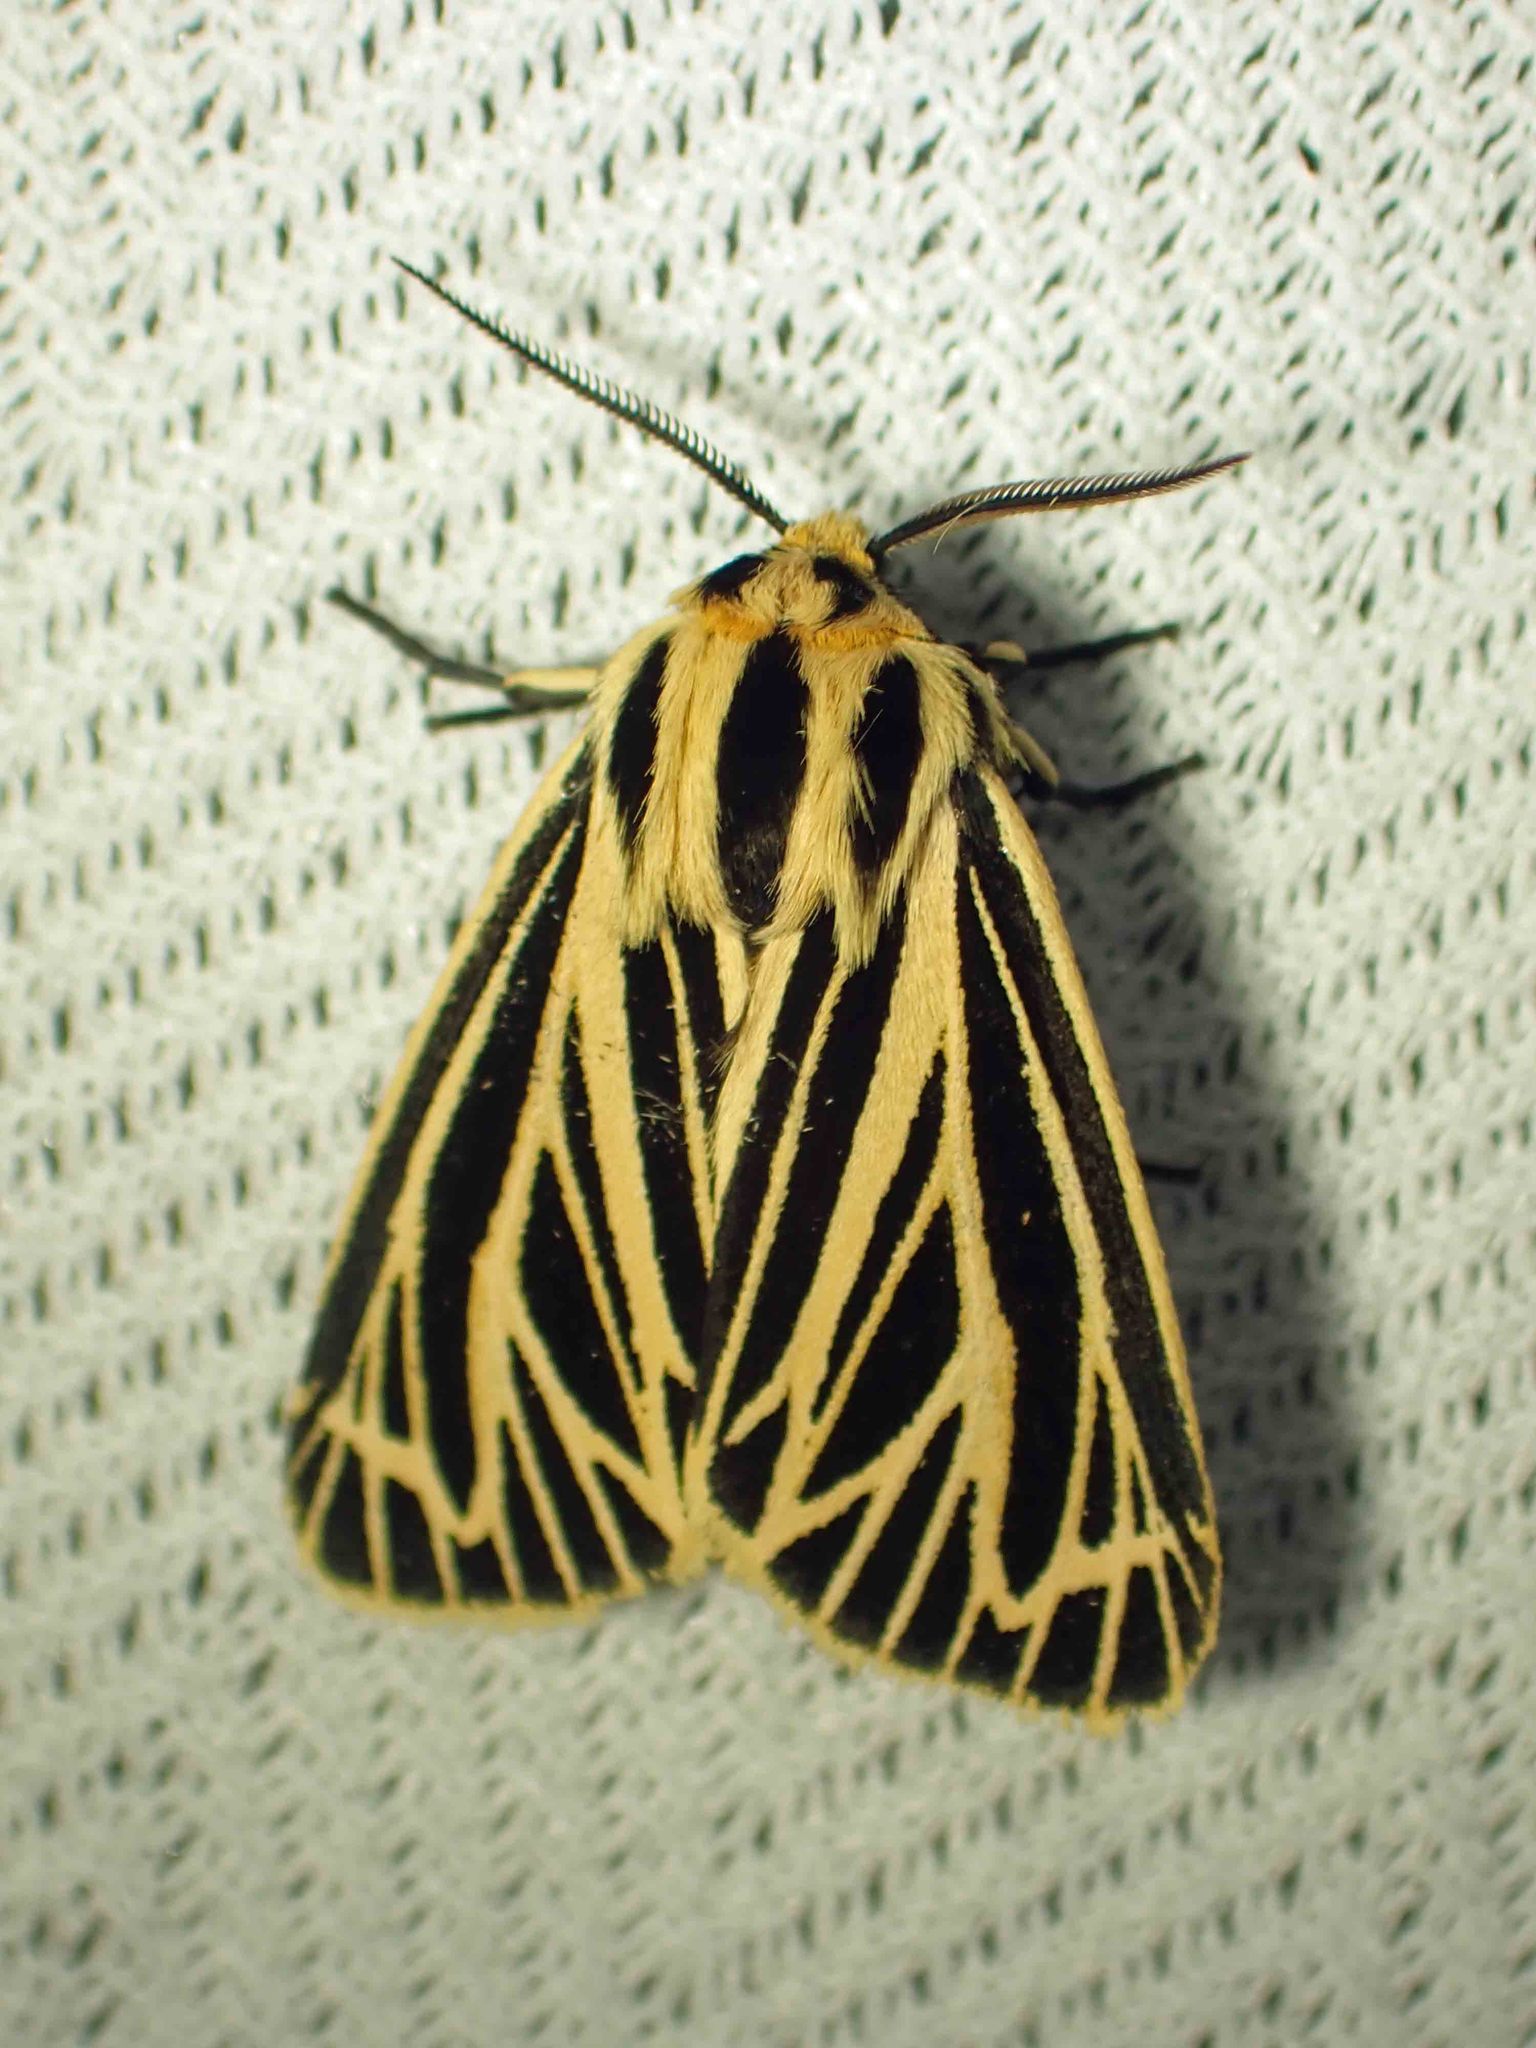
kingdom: Animalia
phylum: Arthropoda
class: Insecta
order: Lepidoptera
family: Erebidae
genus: Grammia
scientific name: Grammia virguncula
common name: Little tiger moth
